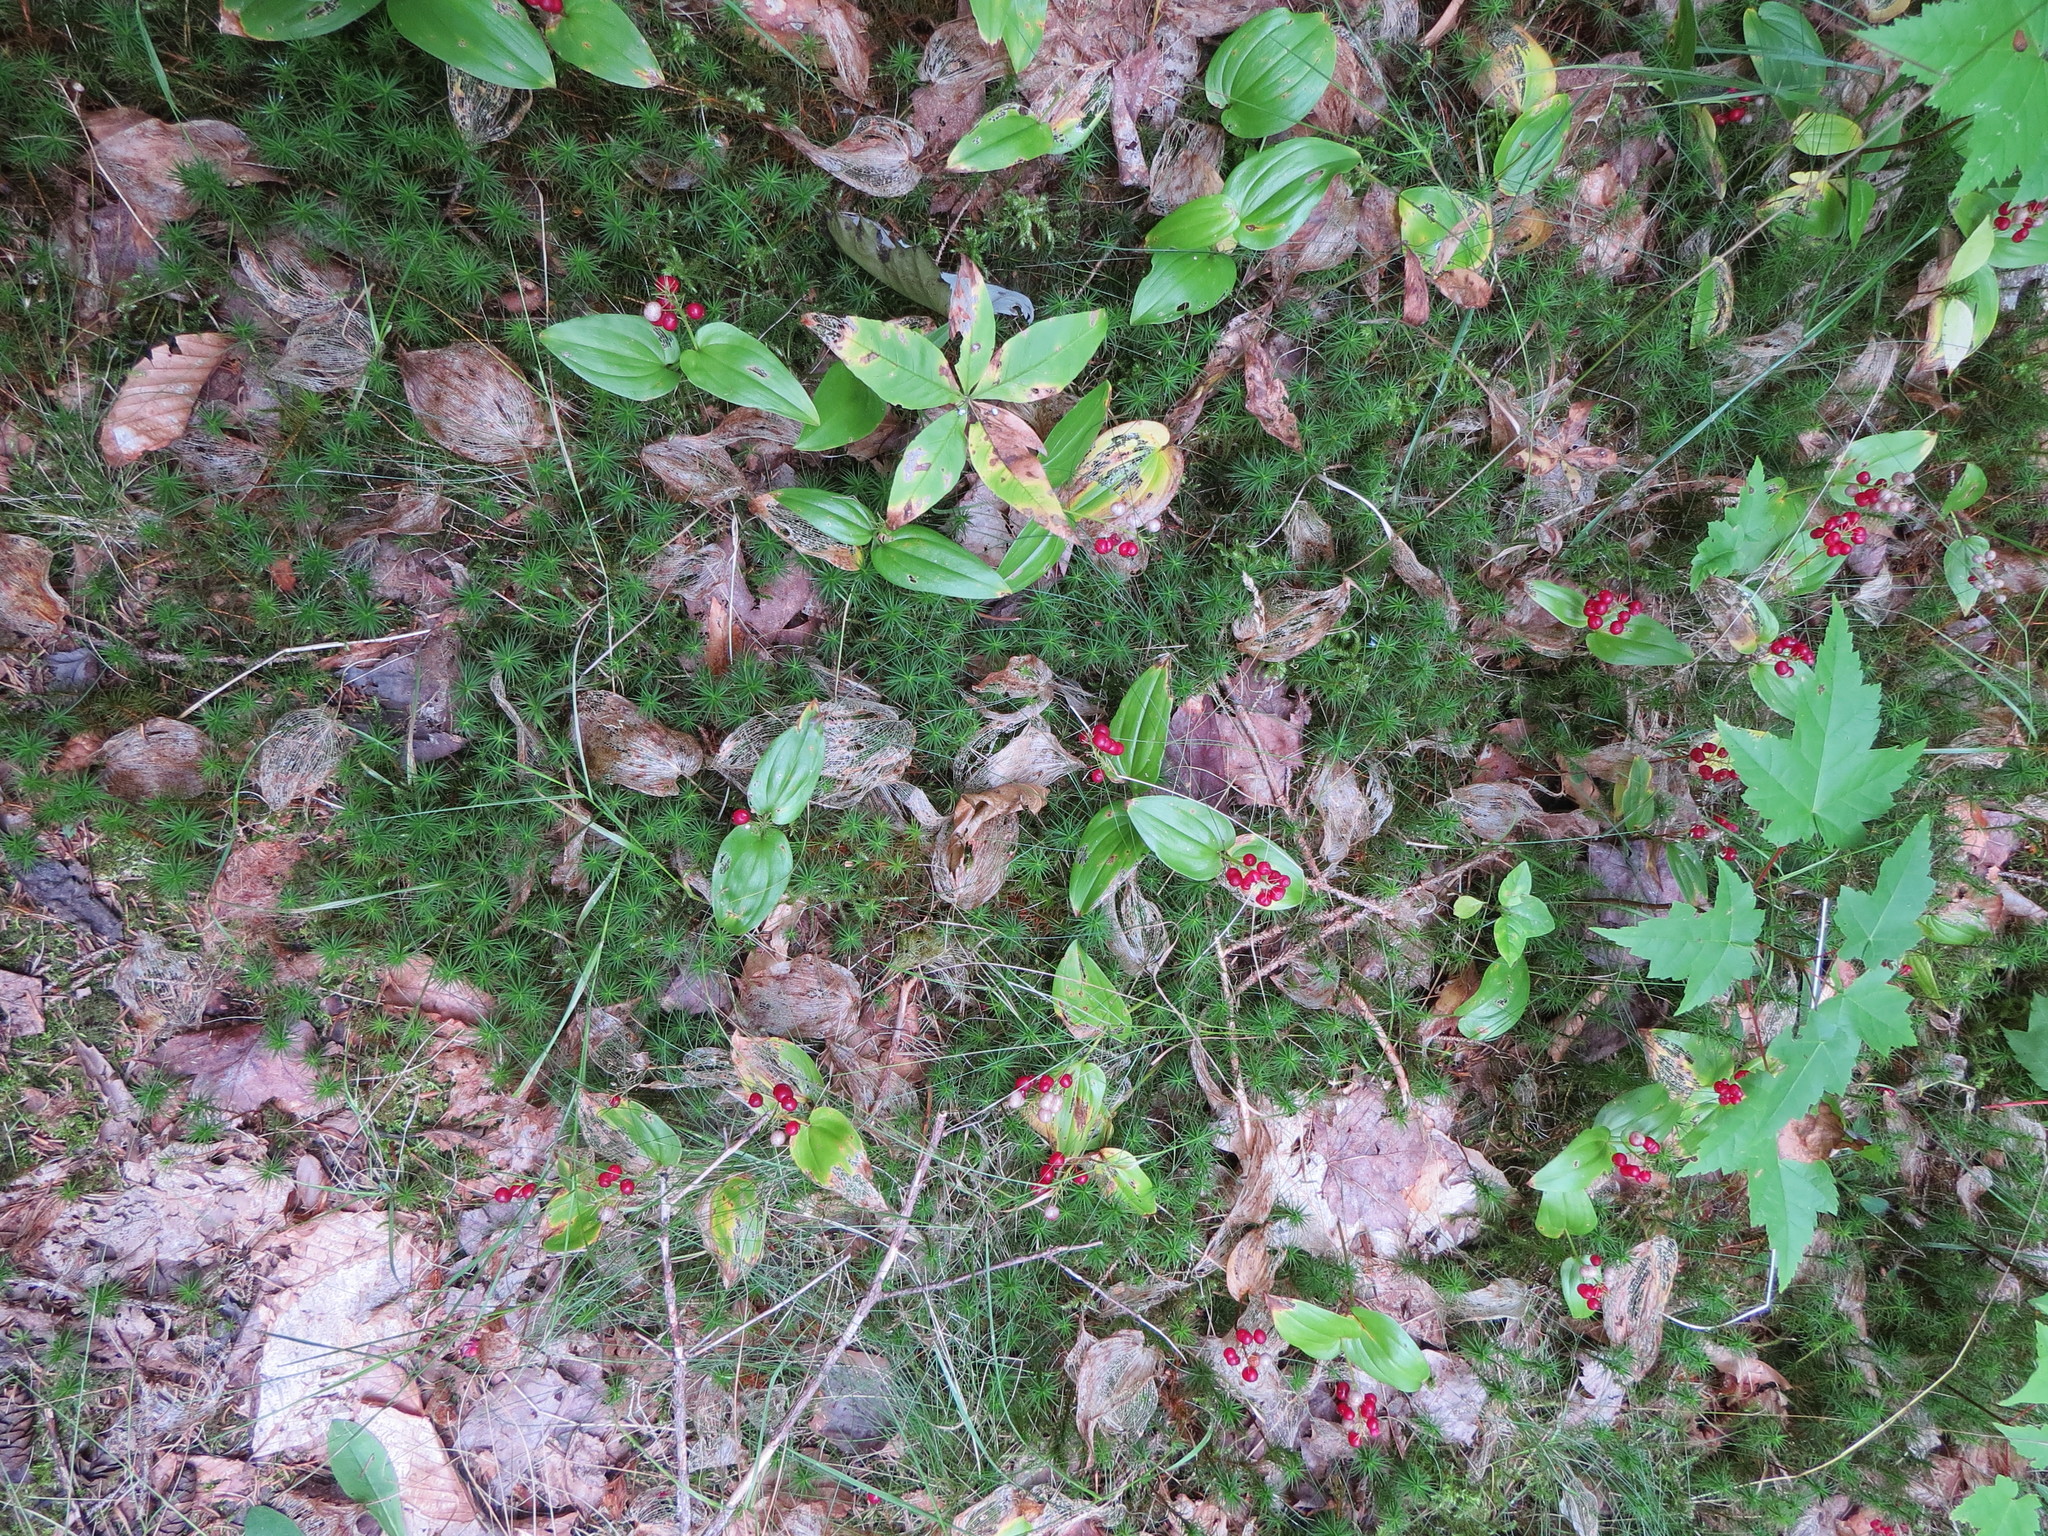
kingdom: Plantae
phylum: Tracheophyta
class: Liliopsida
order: Asparagales
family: Asparagaceae
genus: Maianthemum
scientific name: Maianthemum canadense
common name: False lily-of-the-valley
